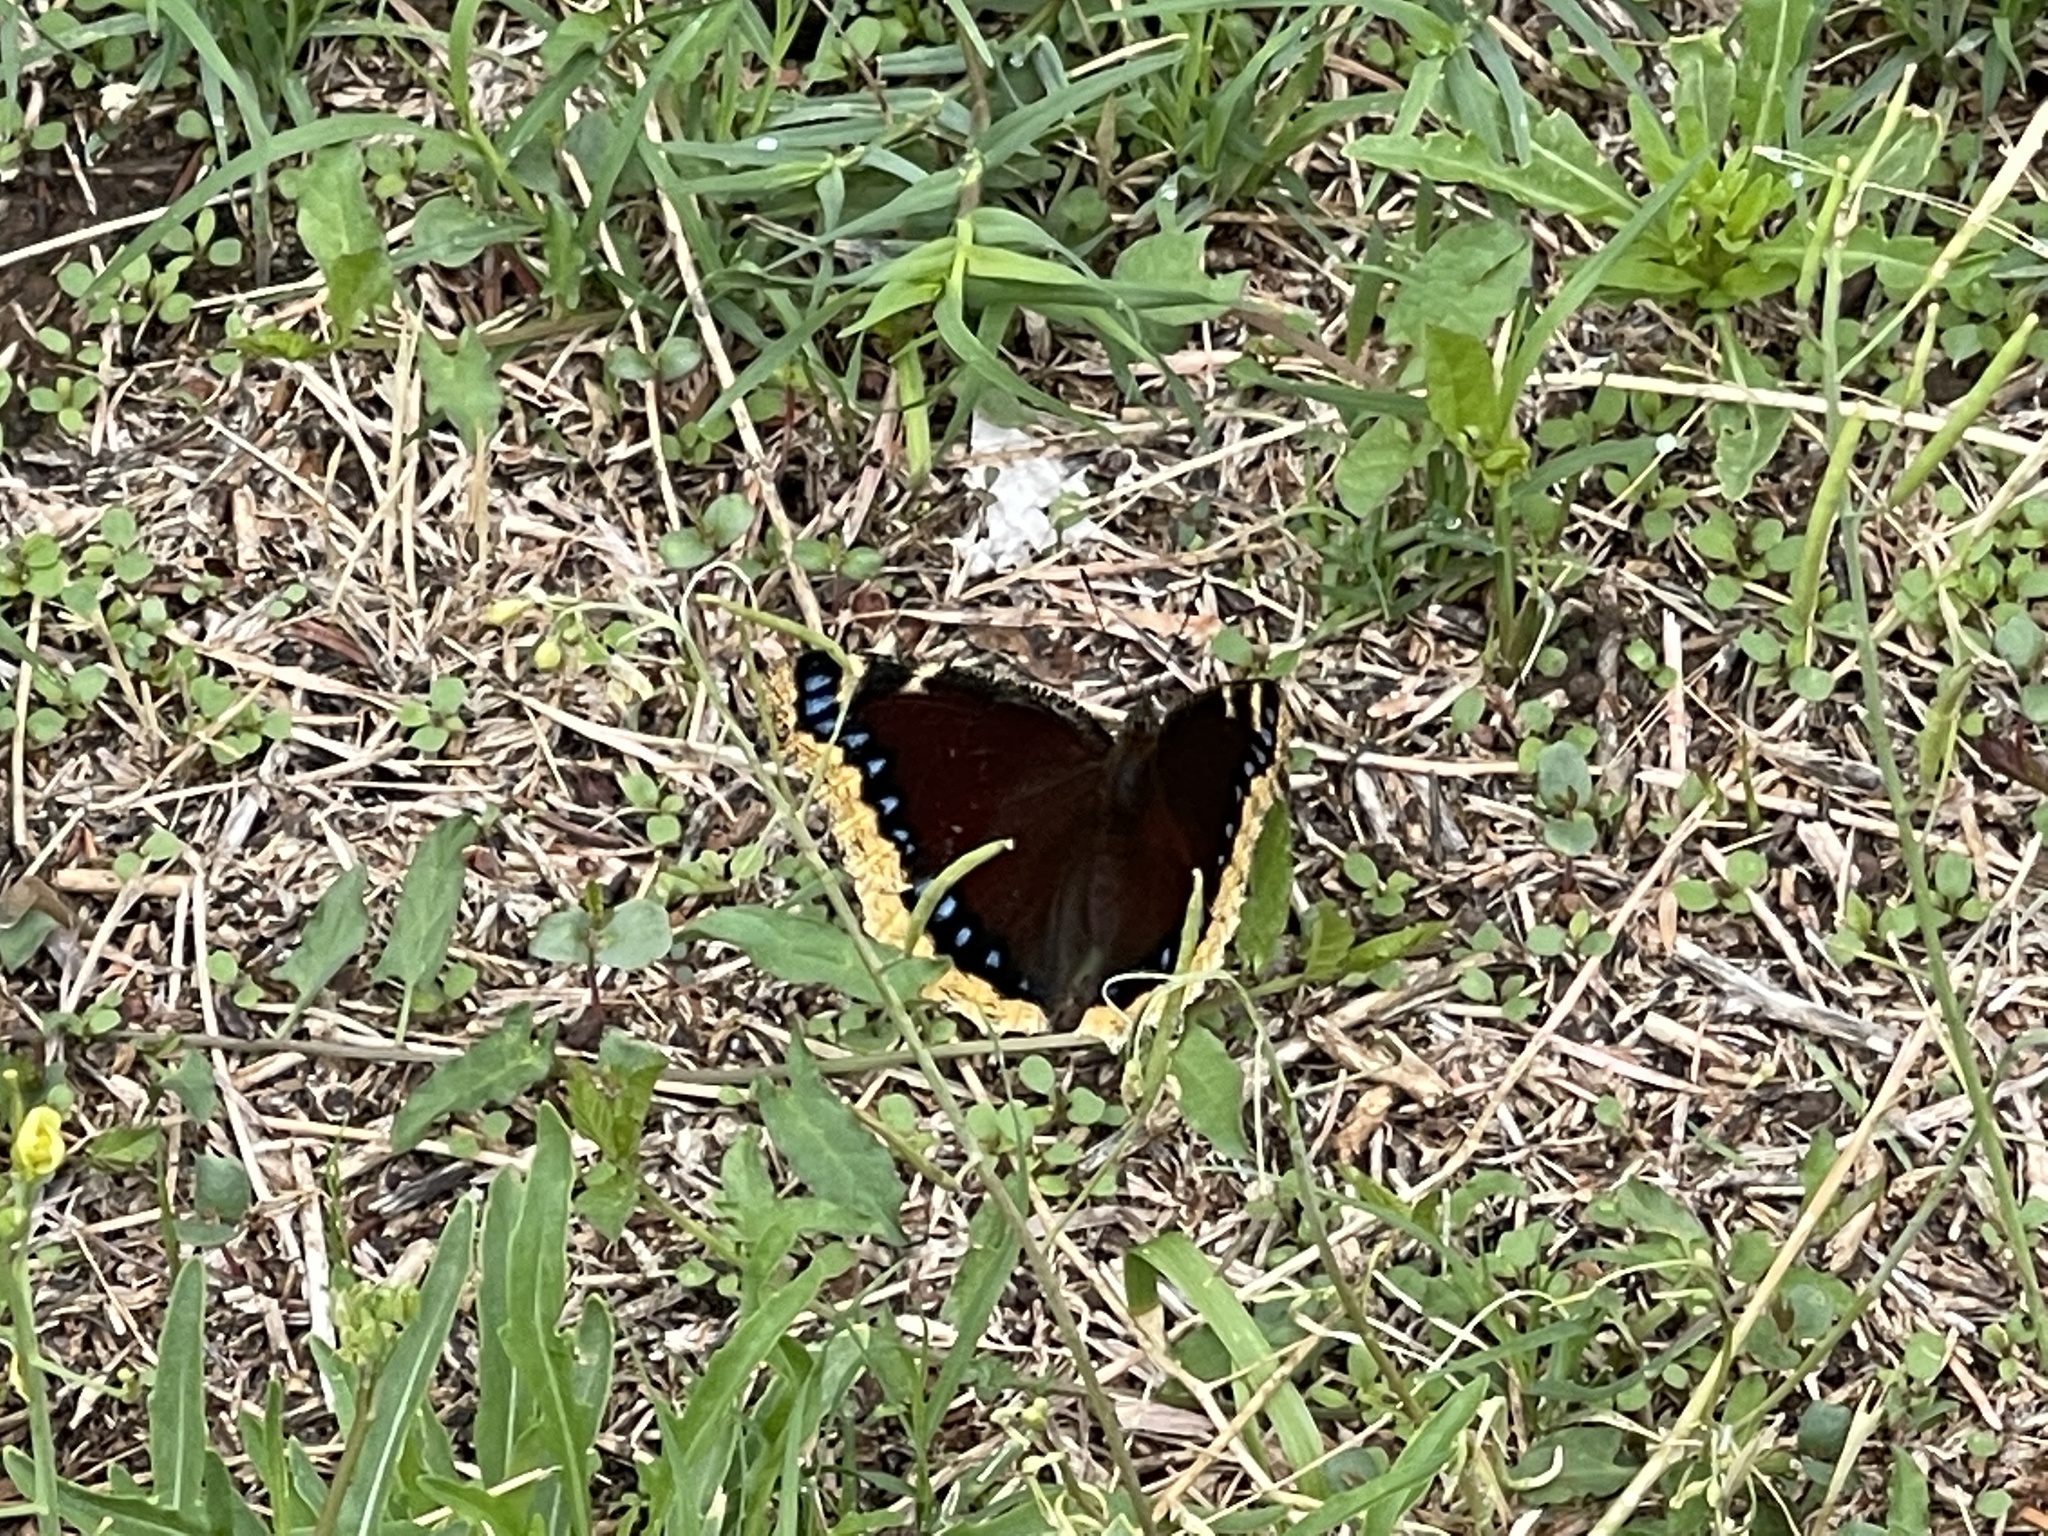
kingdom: Animalia
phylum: Arthropoda
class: Insecta
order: Lepidoptera
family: Nymphalidae
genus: Nymphalis
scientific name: Nymphalis antiopa
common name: Camberwell beauty
